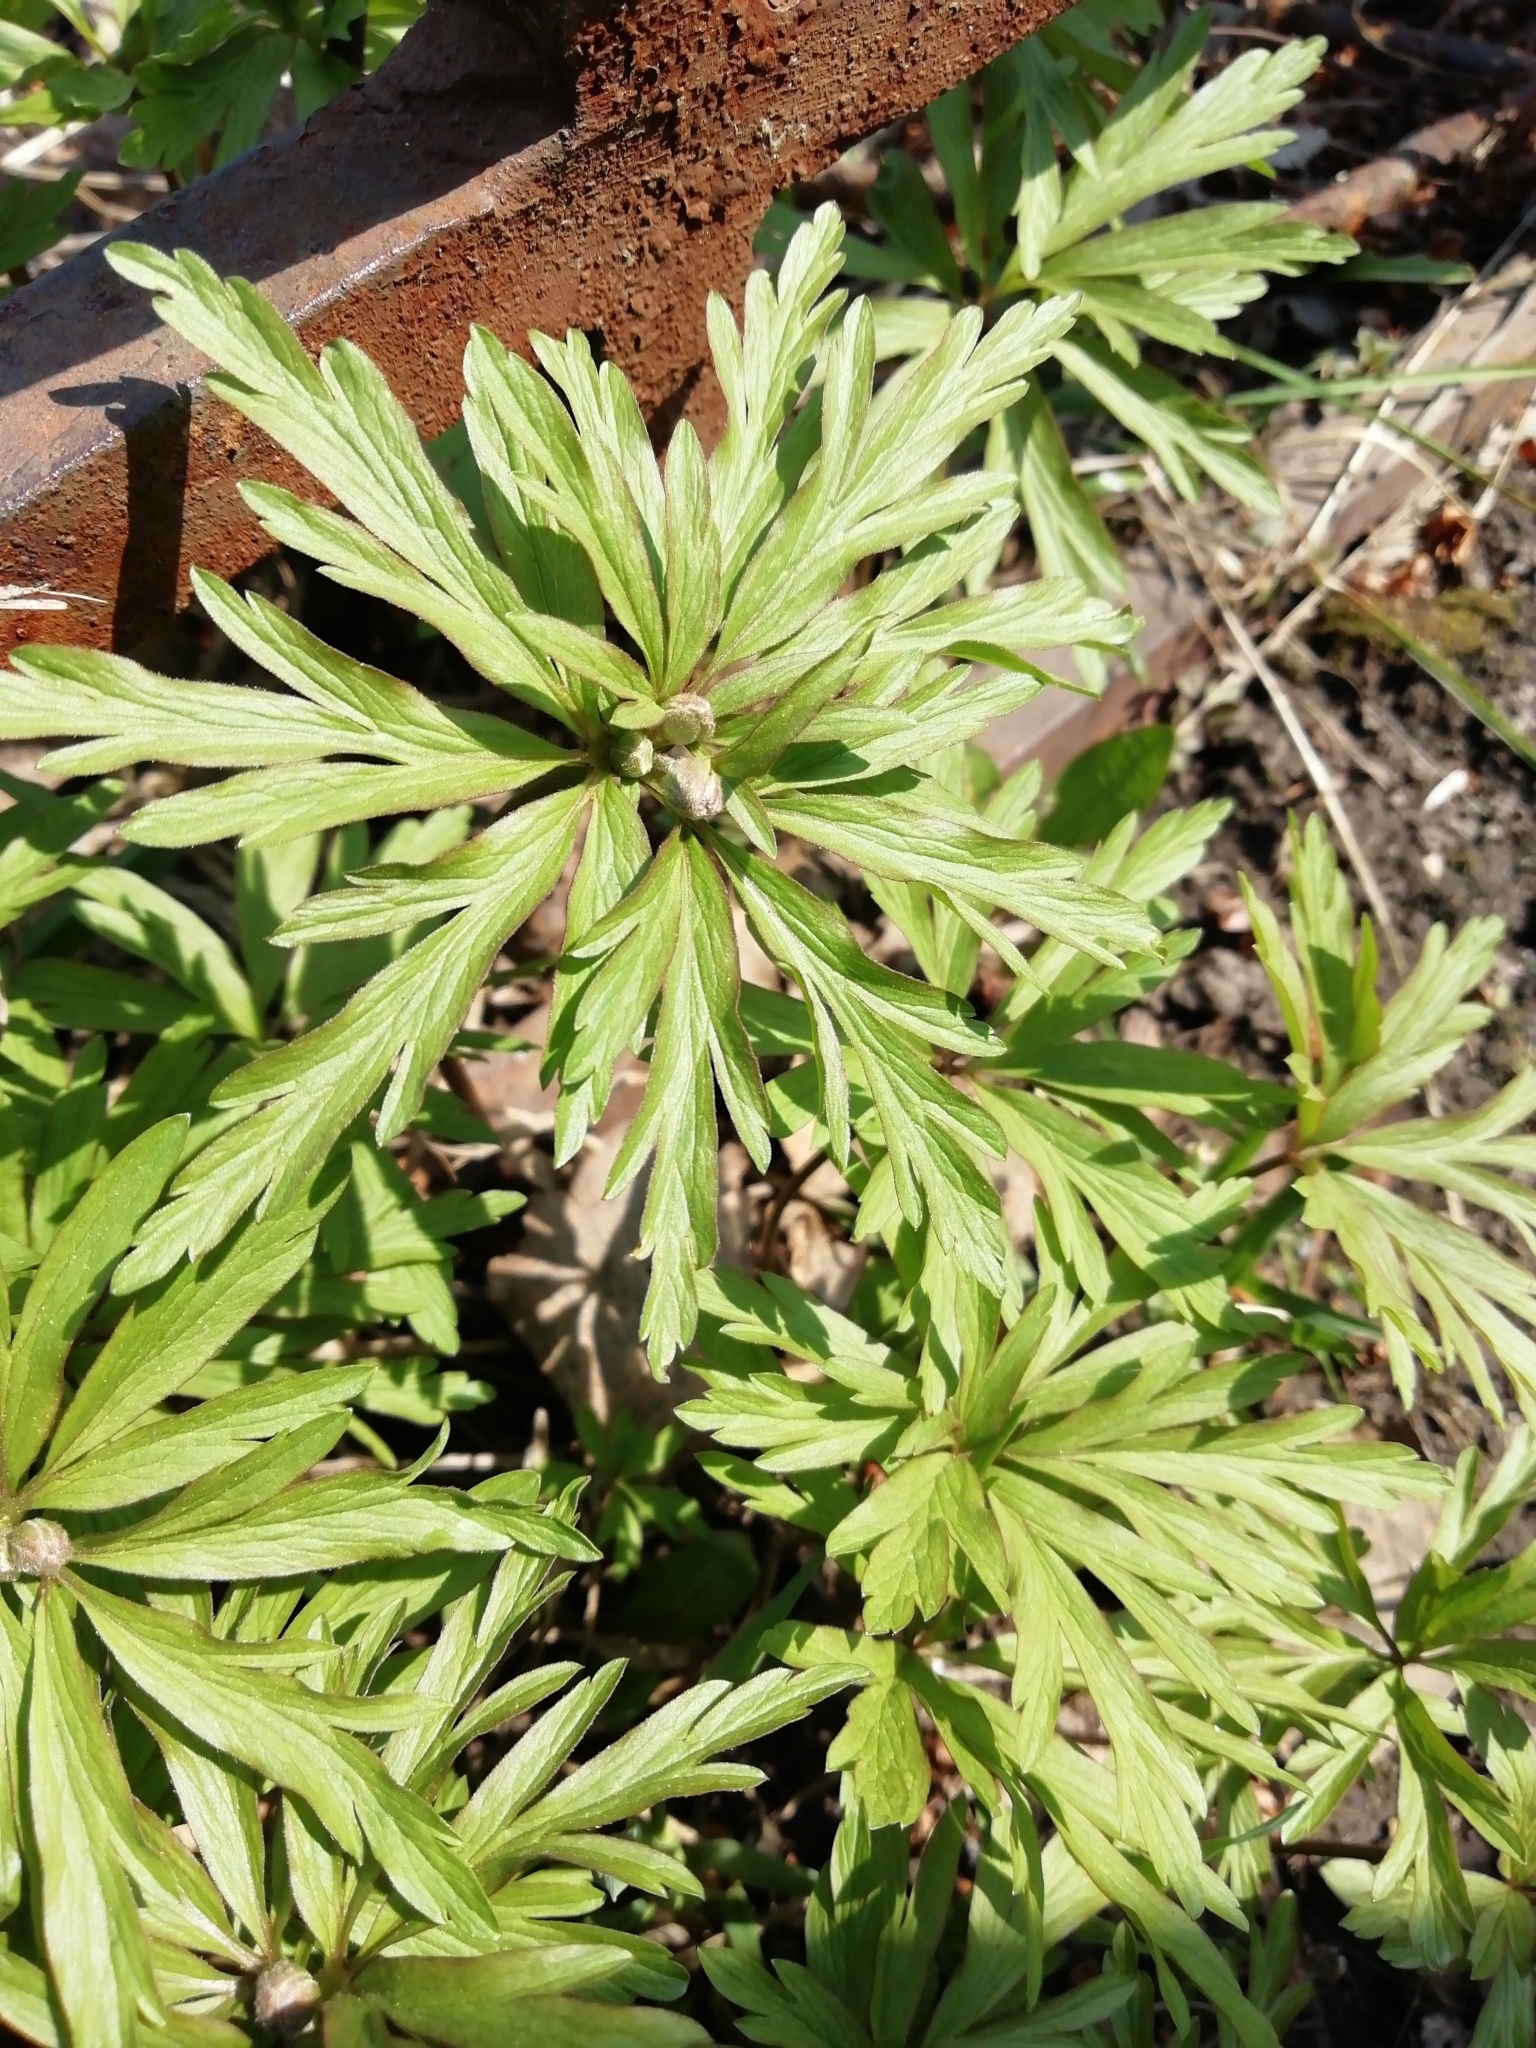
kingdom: Plantae
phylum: Tracheophyta
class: Magnoliopsida
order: Ranunculales
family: Ranunculaceae
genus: Anemone
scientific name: Anemone caerulea
